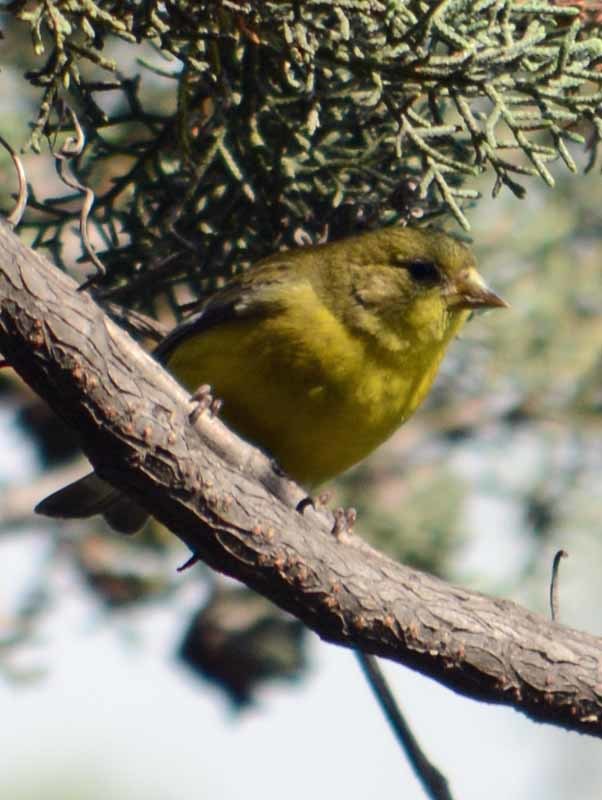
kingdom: Animalia
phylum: Chordata
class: Aves
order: Passeriformes
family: Fringillidae
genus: Spinus
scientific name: Spinus psaltria
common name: Lesser goldfinch
